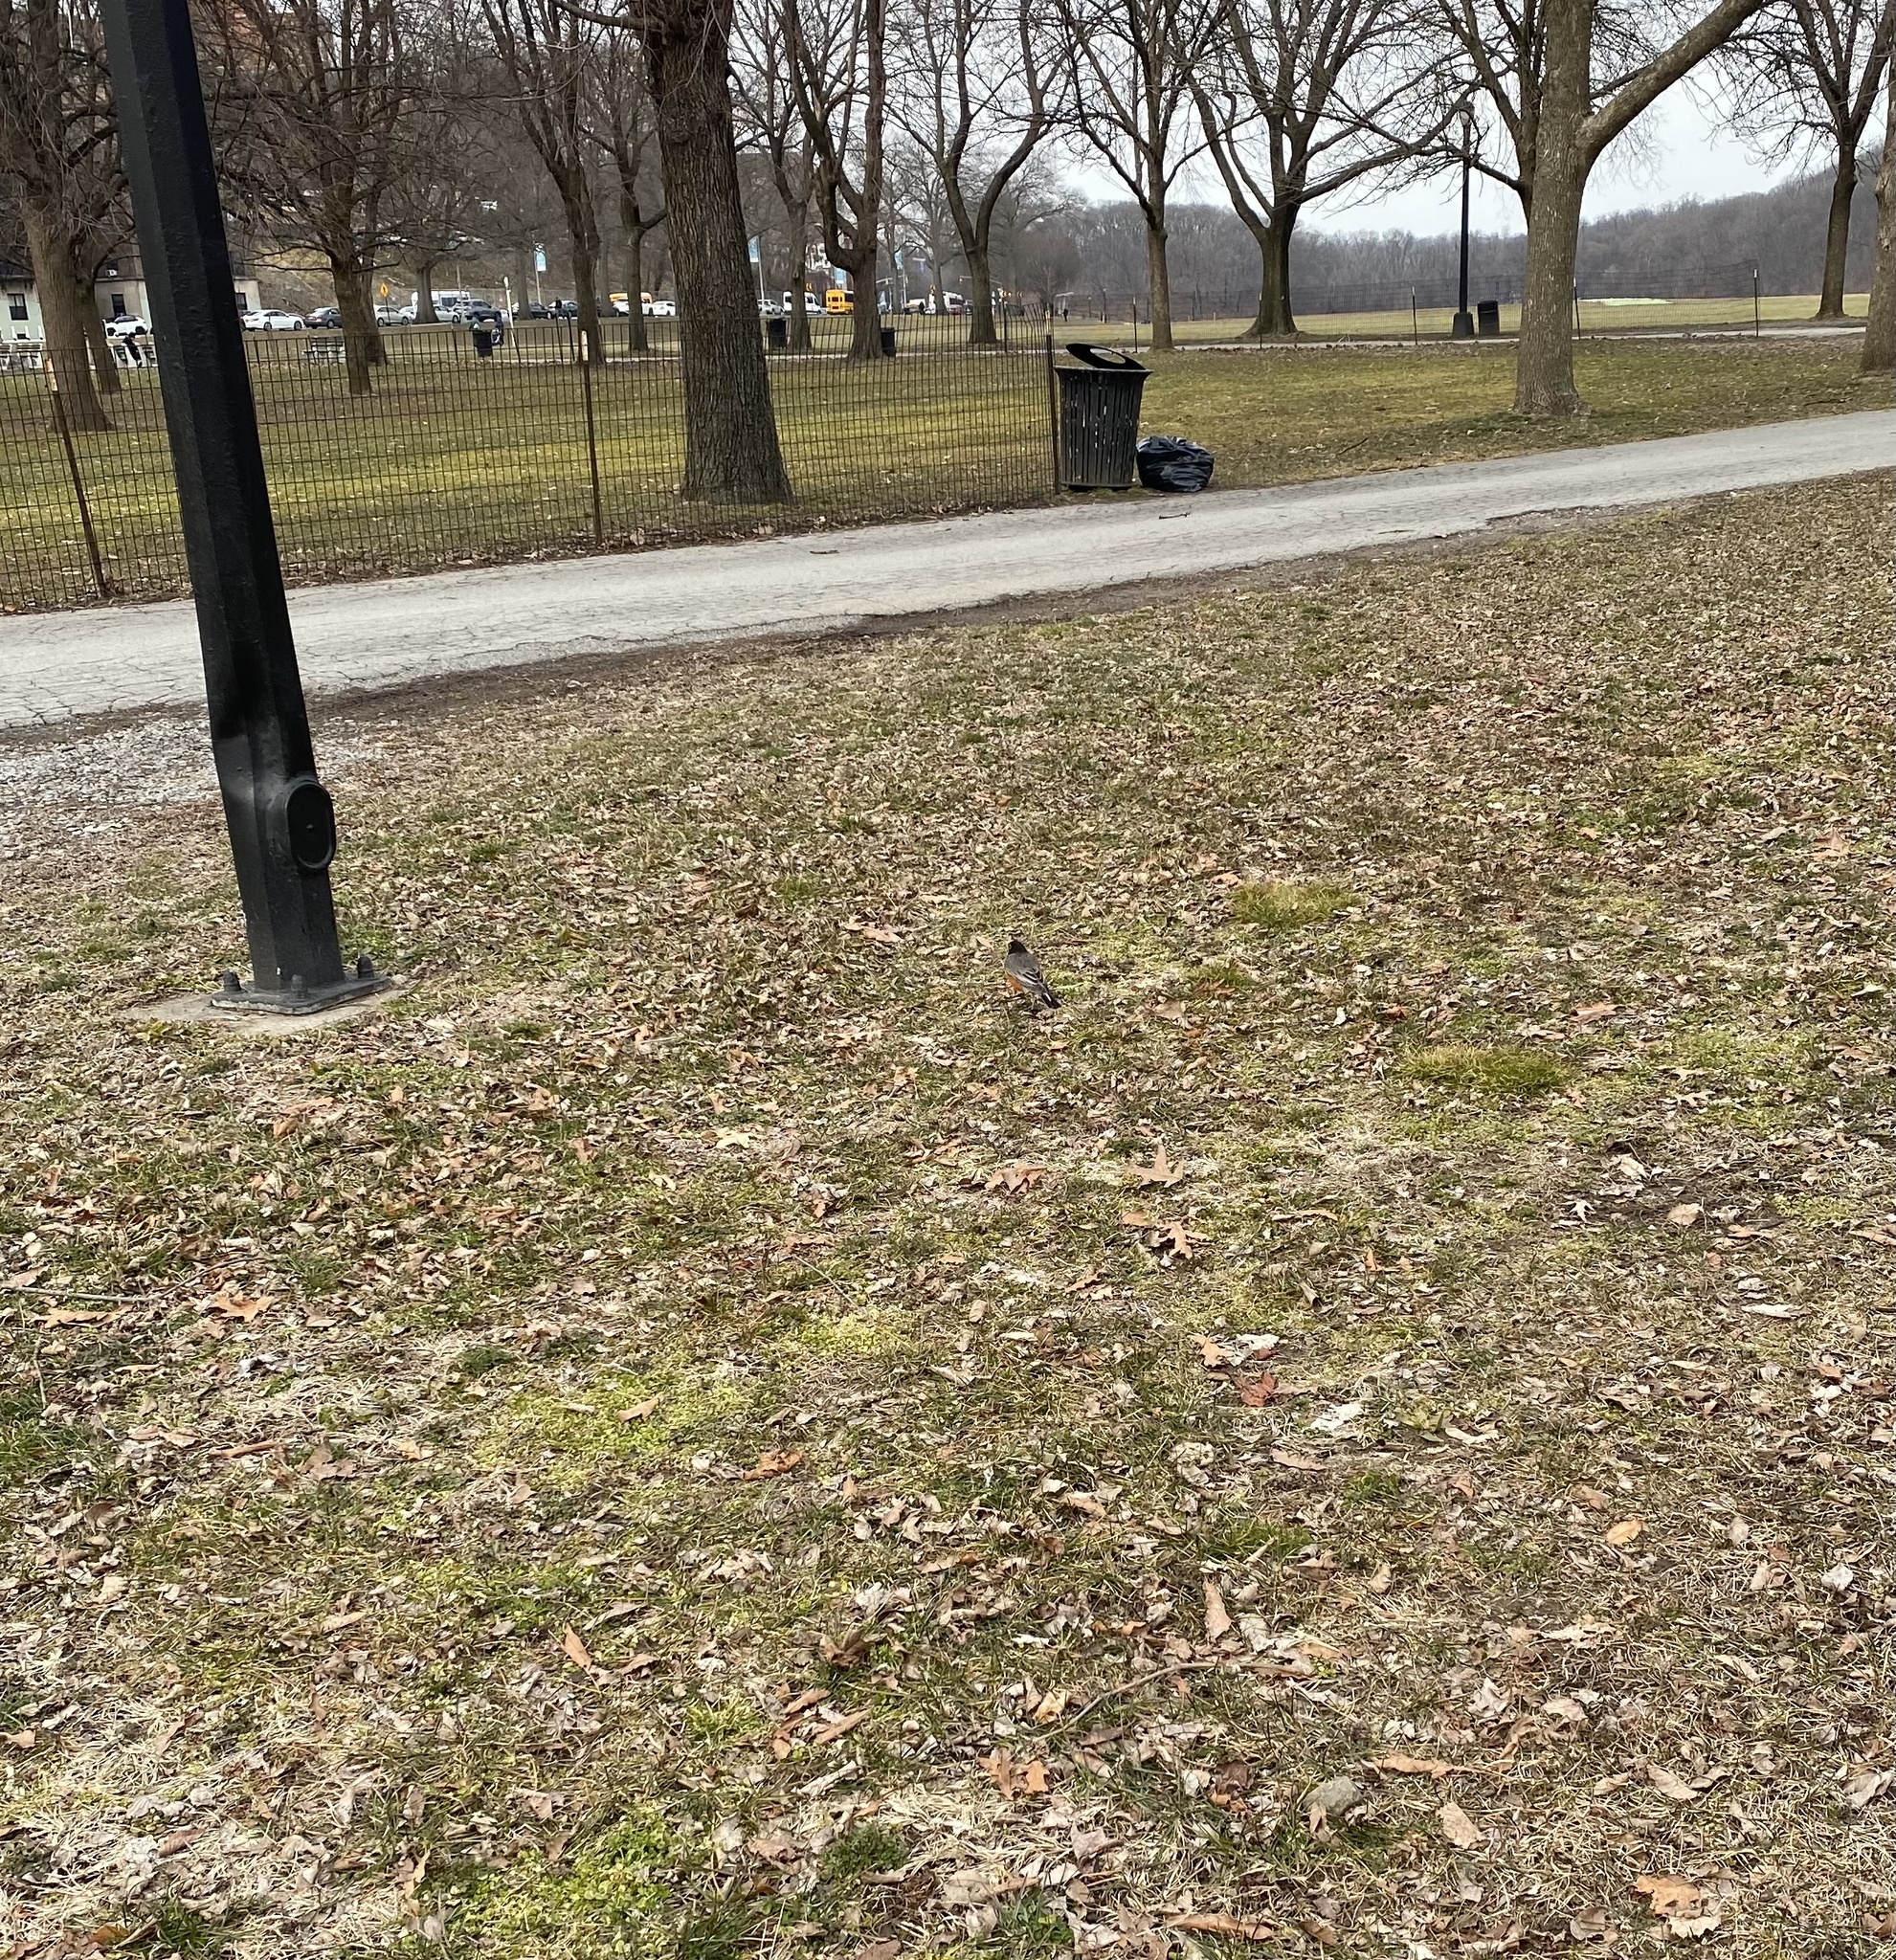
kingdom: Animalia
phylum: Chordata
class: Aves
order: Passeriformes
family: Turdidae
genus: Turdus
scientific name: Turdus migratorius
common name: American robin
